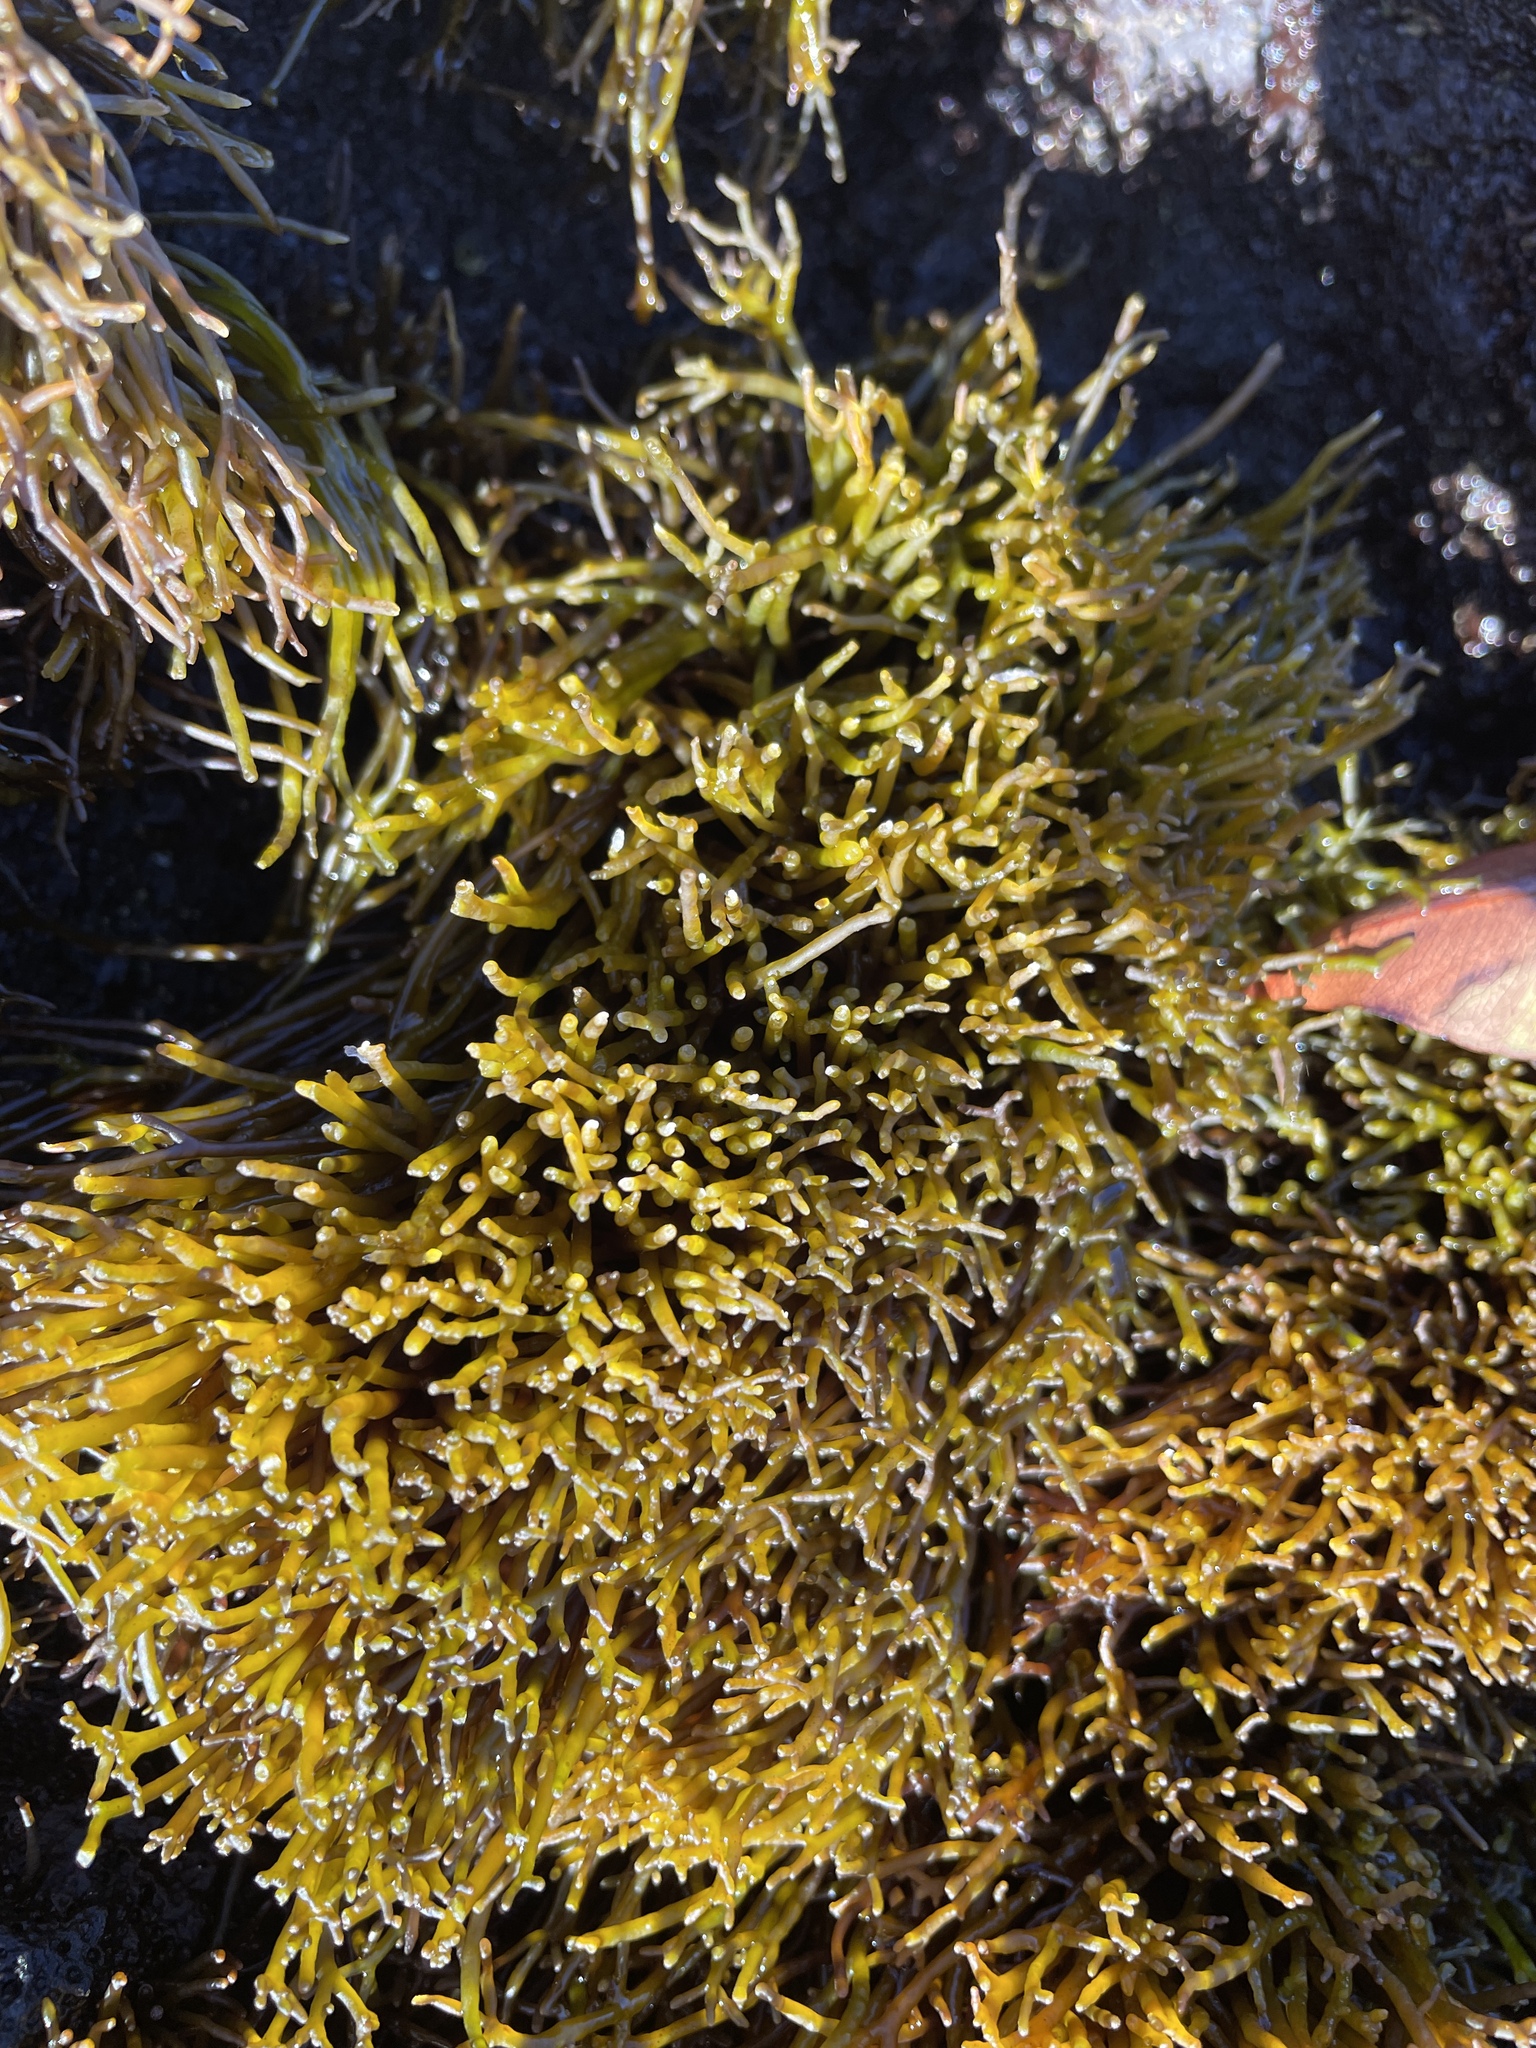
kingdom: Plantae
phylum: Rhodophyta
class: Florideophyceae
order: Gigartinales
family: Phyllophoraceae
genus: Gymnogongrus
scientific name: Gymnogongrus durvillei
